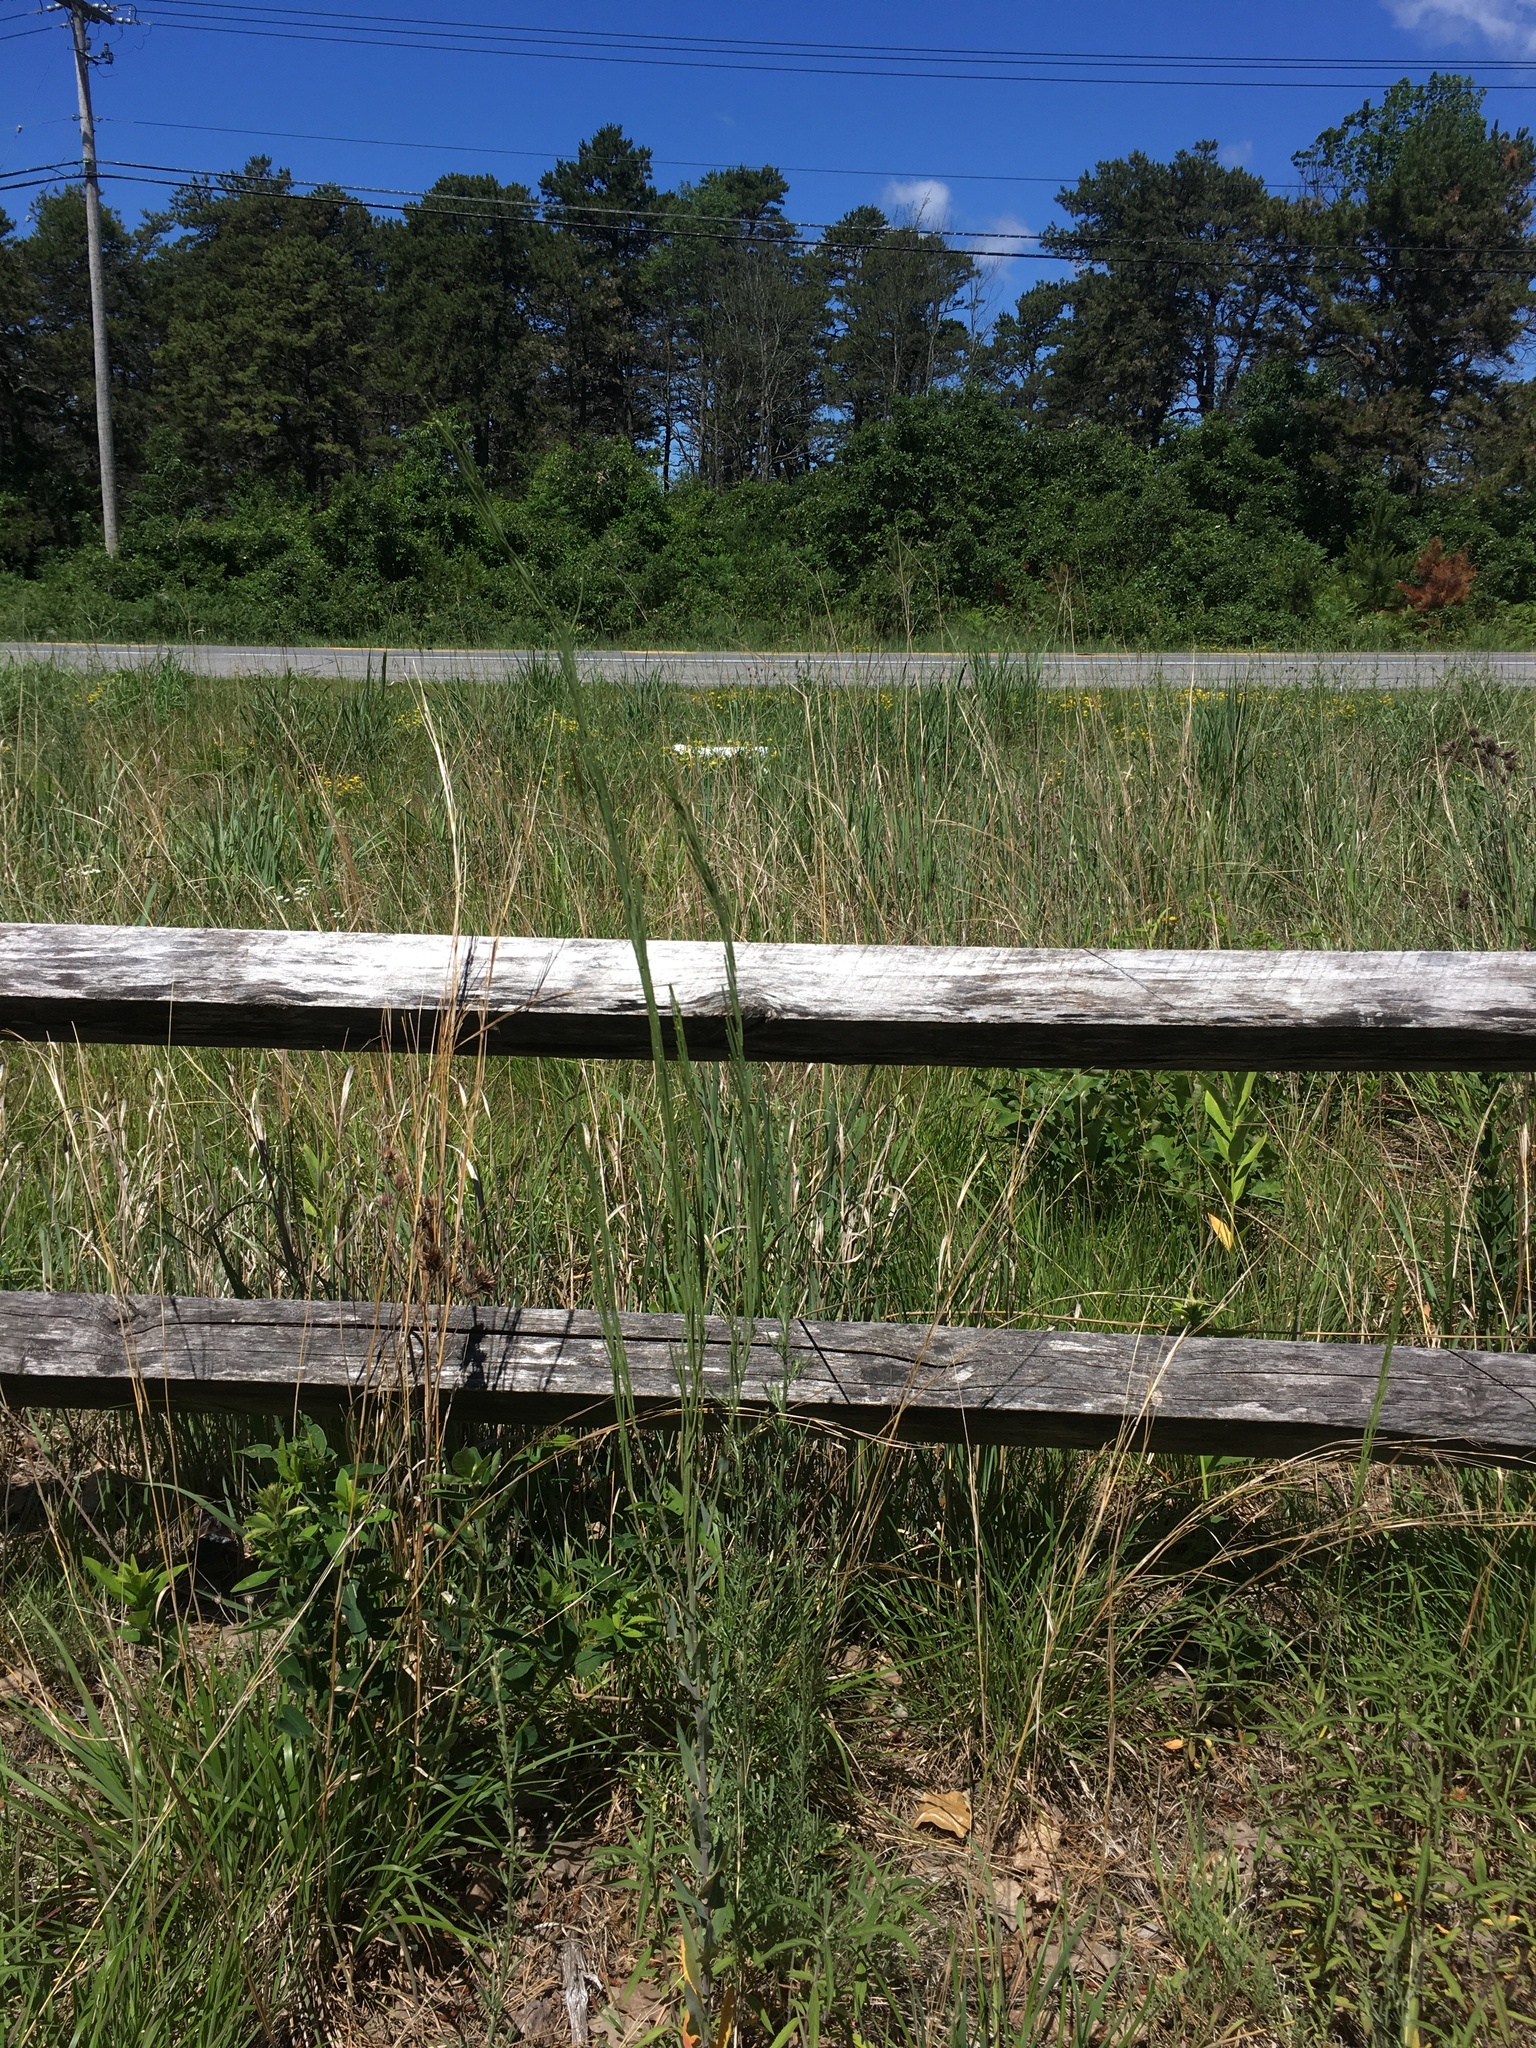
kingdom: Plantae
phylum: Tracheophyta
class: Magnoliopsida
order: Brassicales
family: Brassicaceae
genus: Turritis
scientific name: Turritis glabra
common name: Tower rockcress
